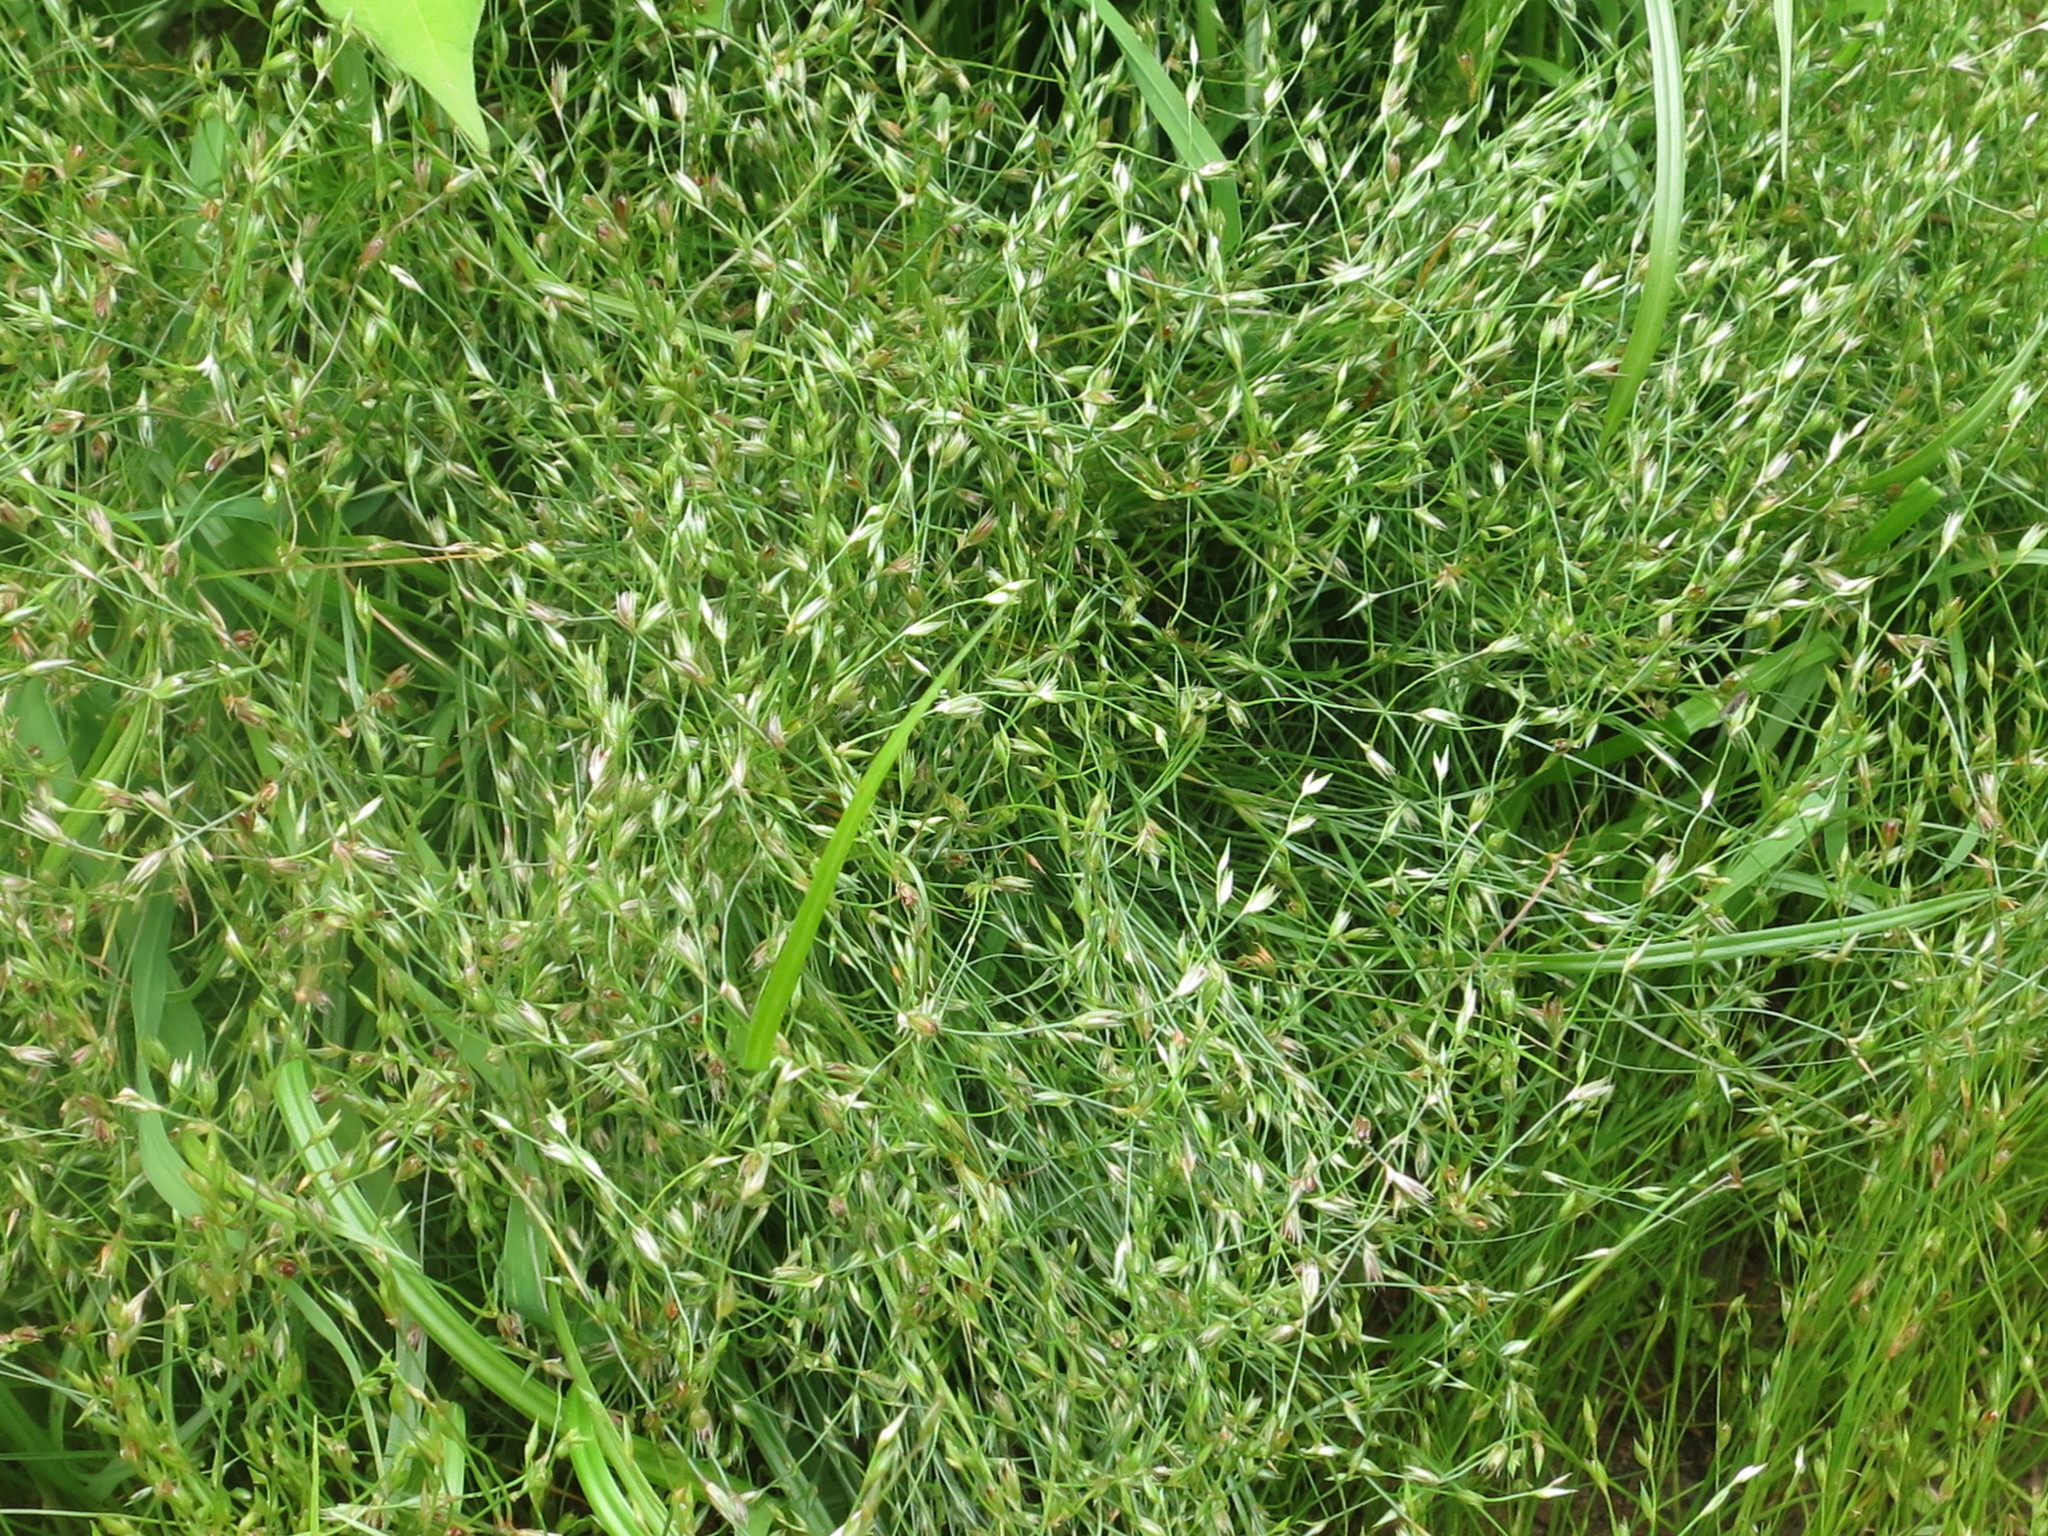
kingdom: Plantae
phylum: Tracheophyta
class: Liliopsida
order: Poales
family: Juncaceae
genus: Juncus
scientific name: Juncus bufonius
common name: Toad rush
